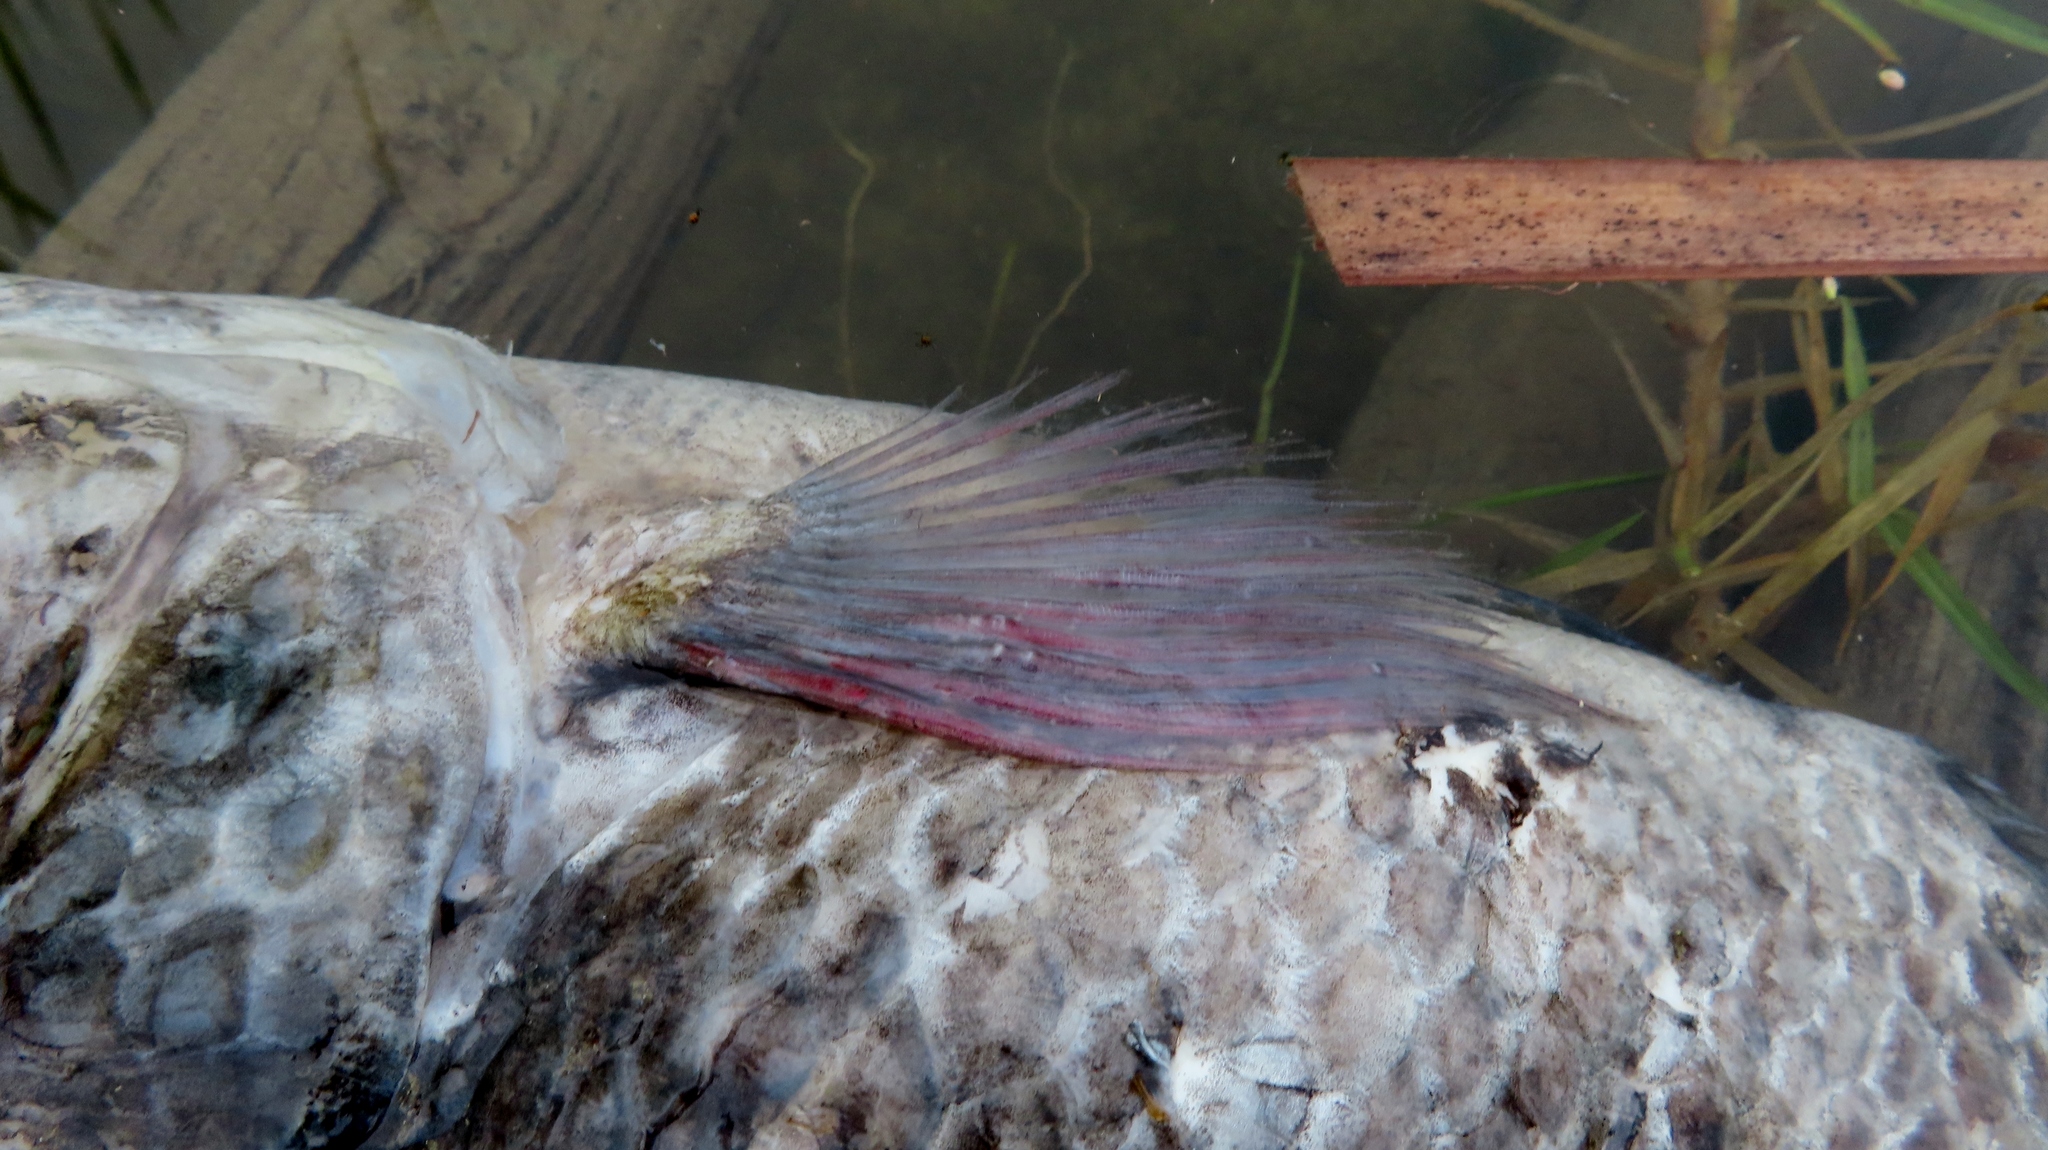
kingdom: Animalia
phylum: Chordata
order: Perciformes
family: Cichlidae
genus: Oreochromis
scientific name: Oreochromis mossambicus
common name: Mozambique tilapia
